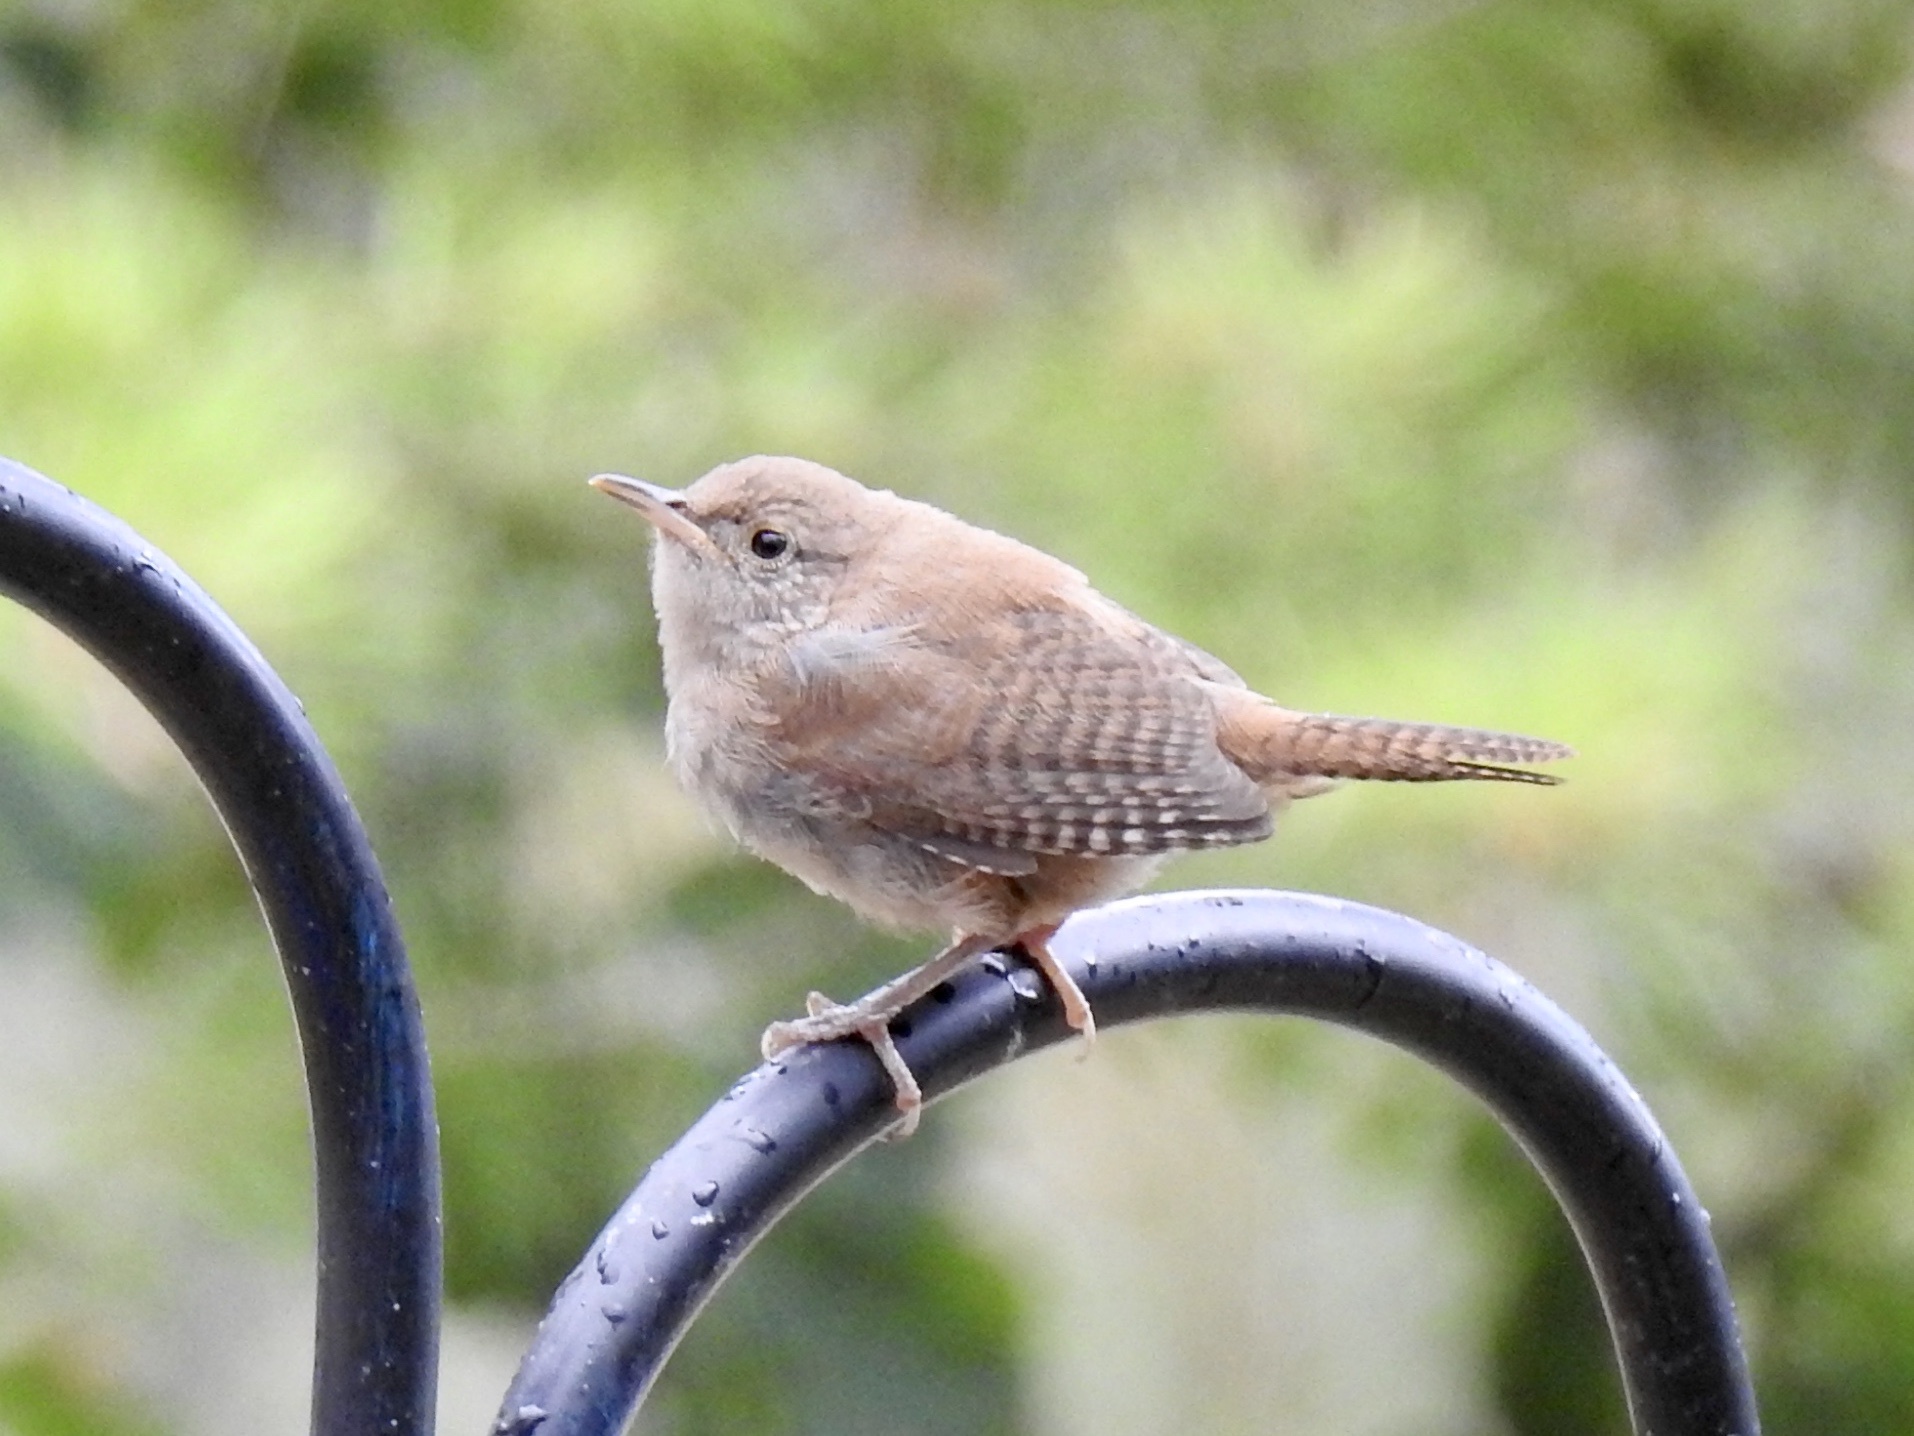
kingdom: Animalia
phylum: Chordata
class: Aves
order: Passeriformes
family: Troglodytidae
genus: Troglodytes
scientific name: Troglodytes aedon
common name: House wren
